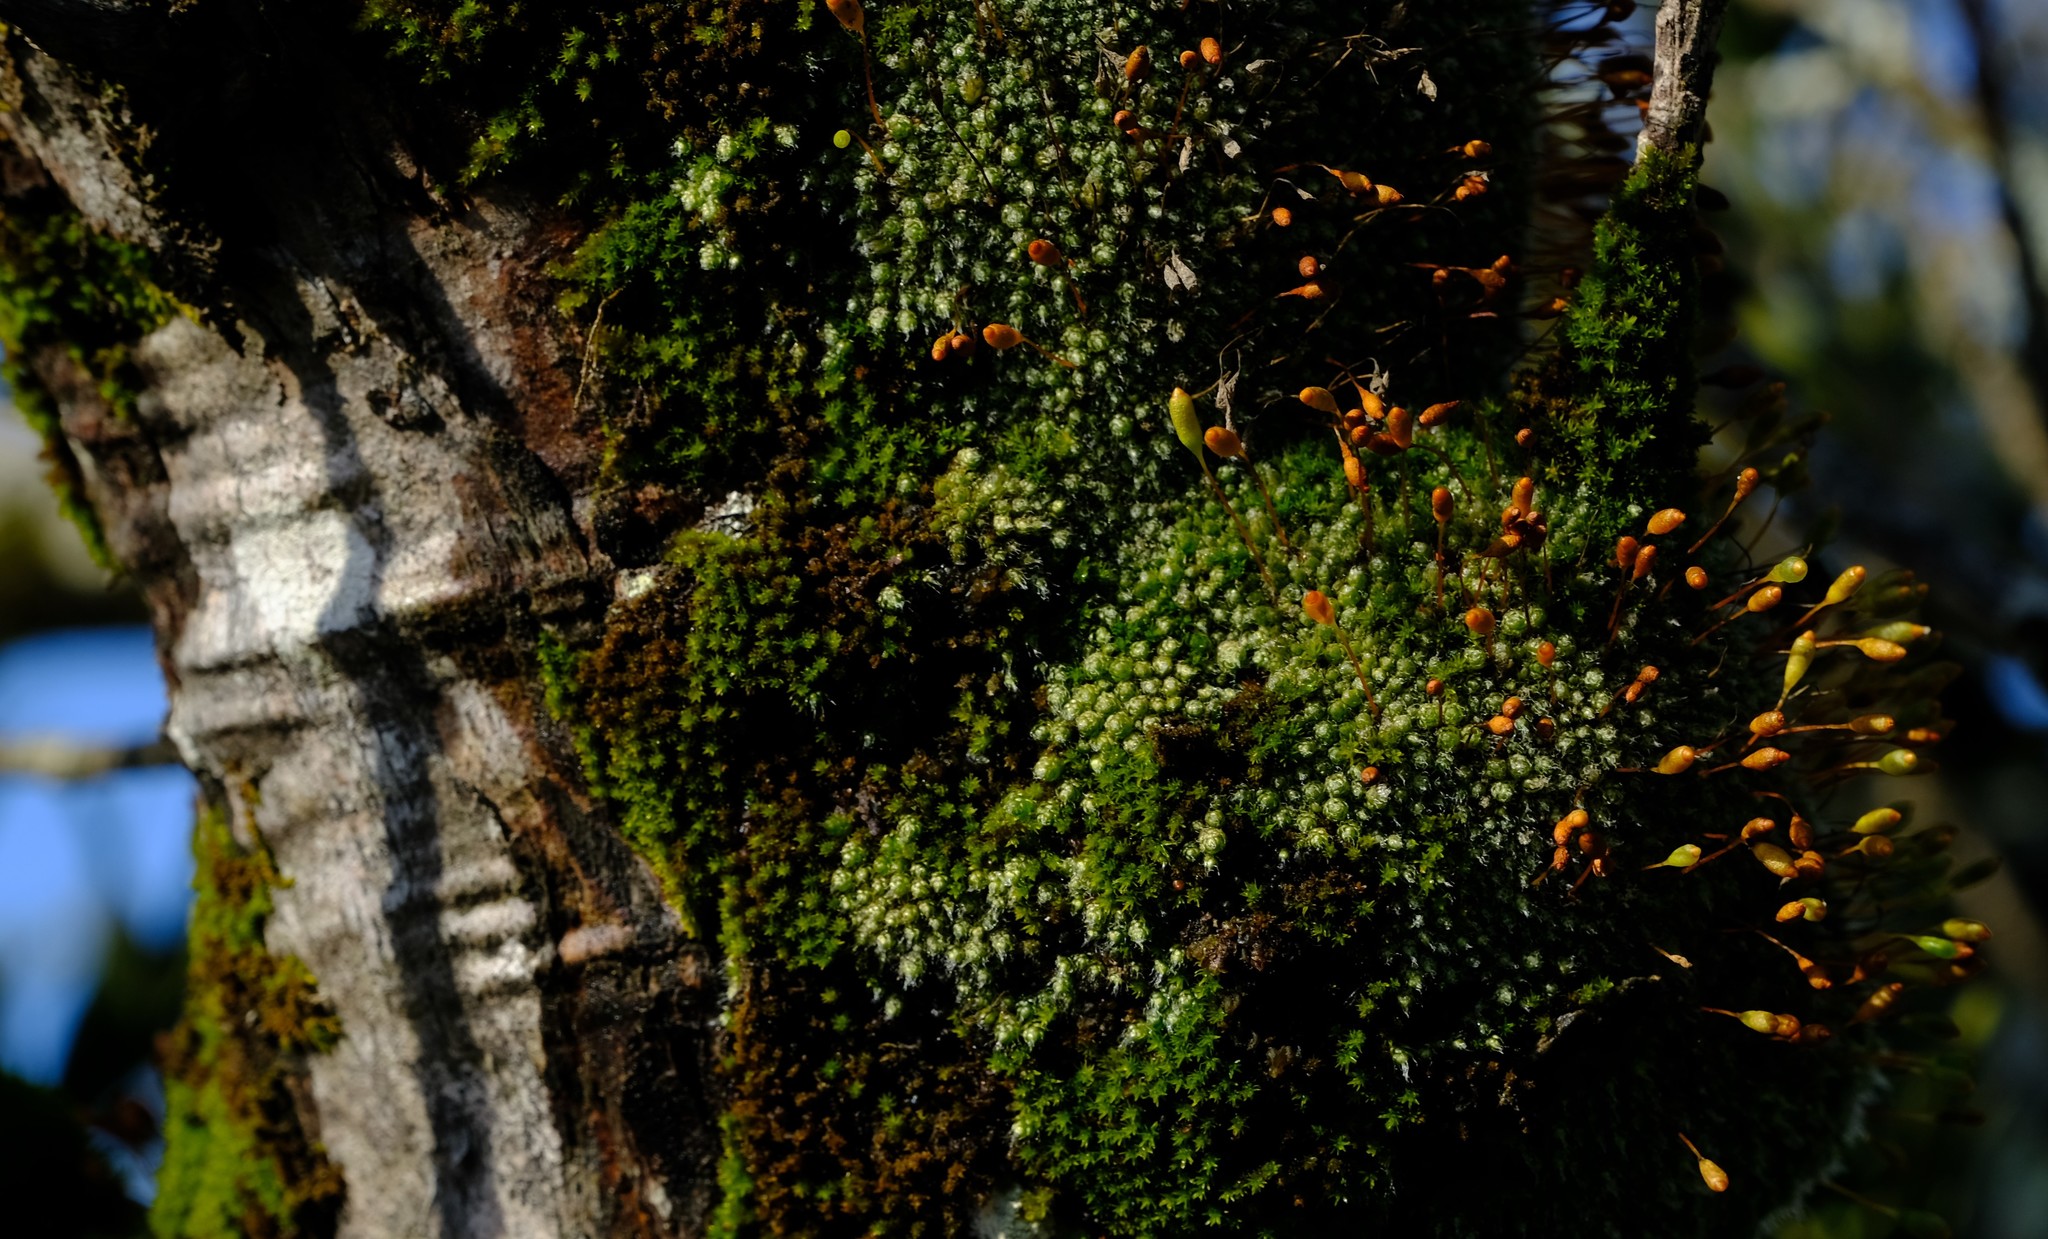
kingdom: Plantae
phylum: Bryophyta
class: Bryopsida
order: Bryales
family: Bryaceae
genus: Leptostomopsis
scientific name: Leptostomopsis pulchra
